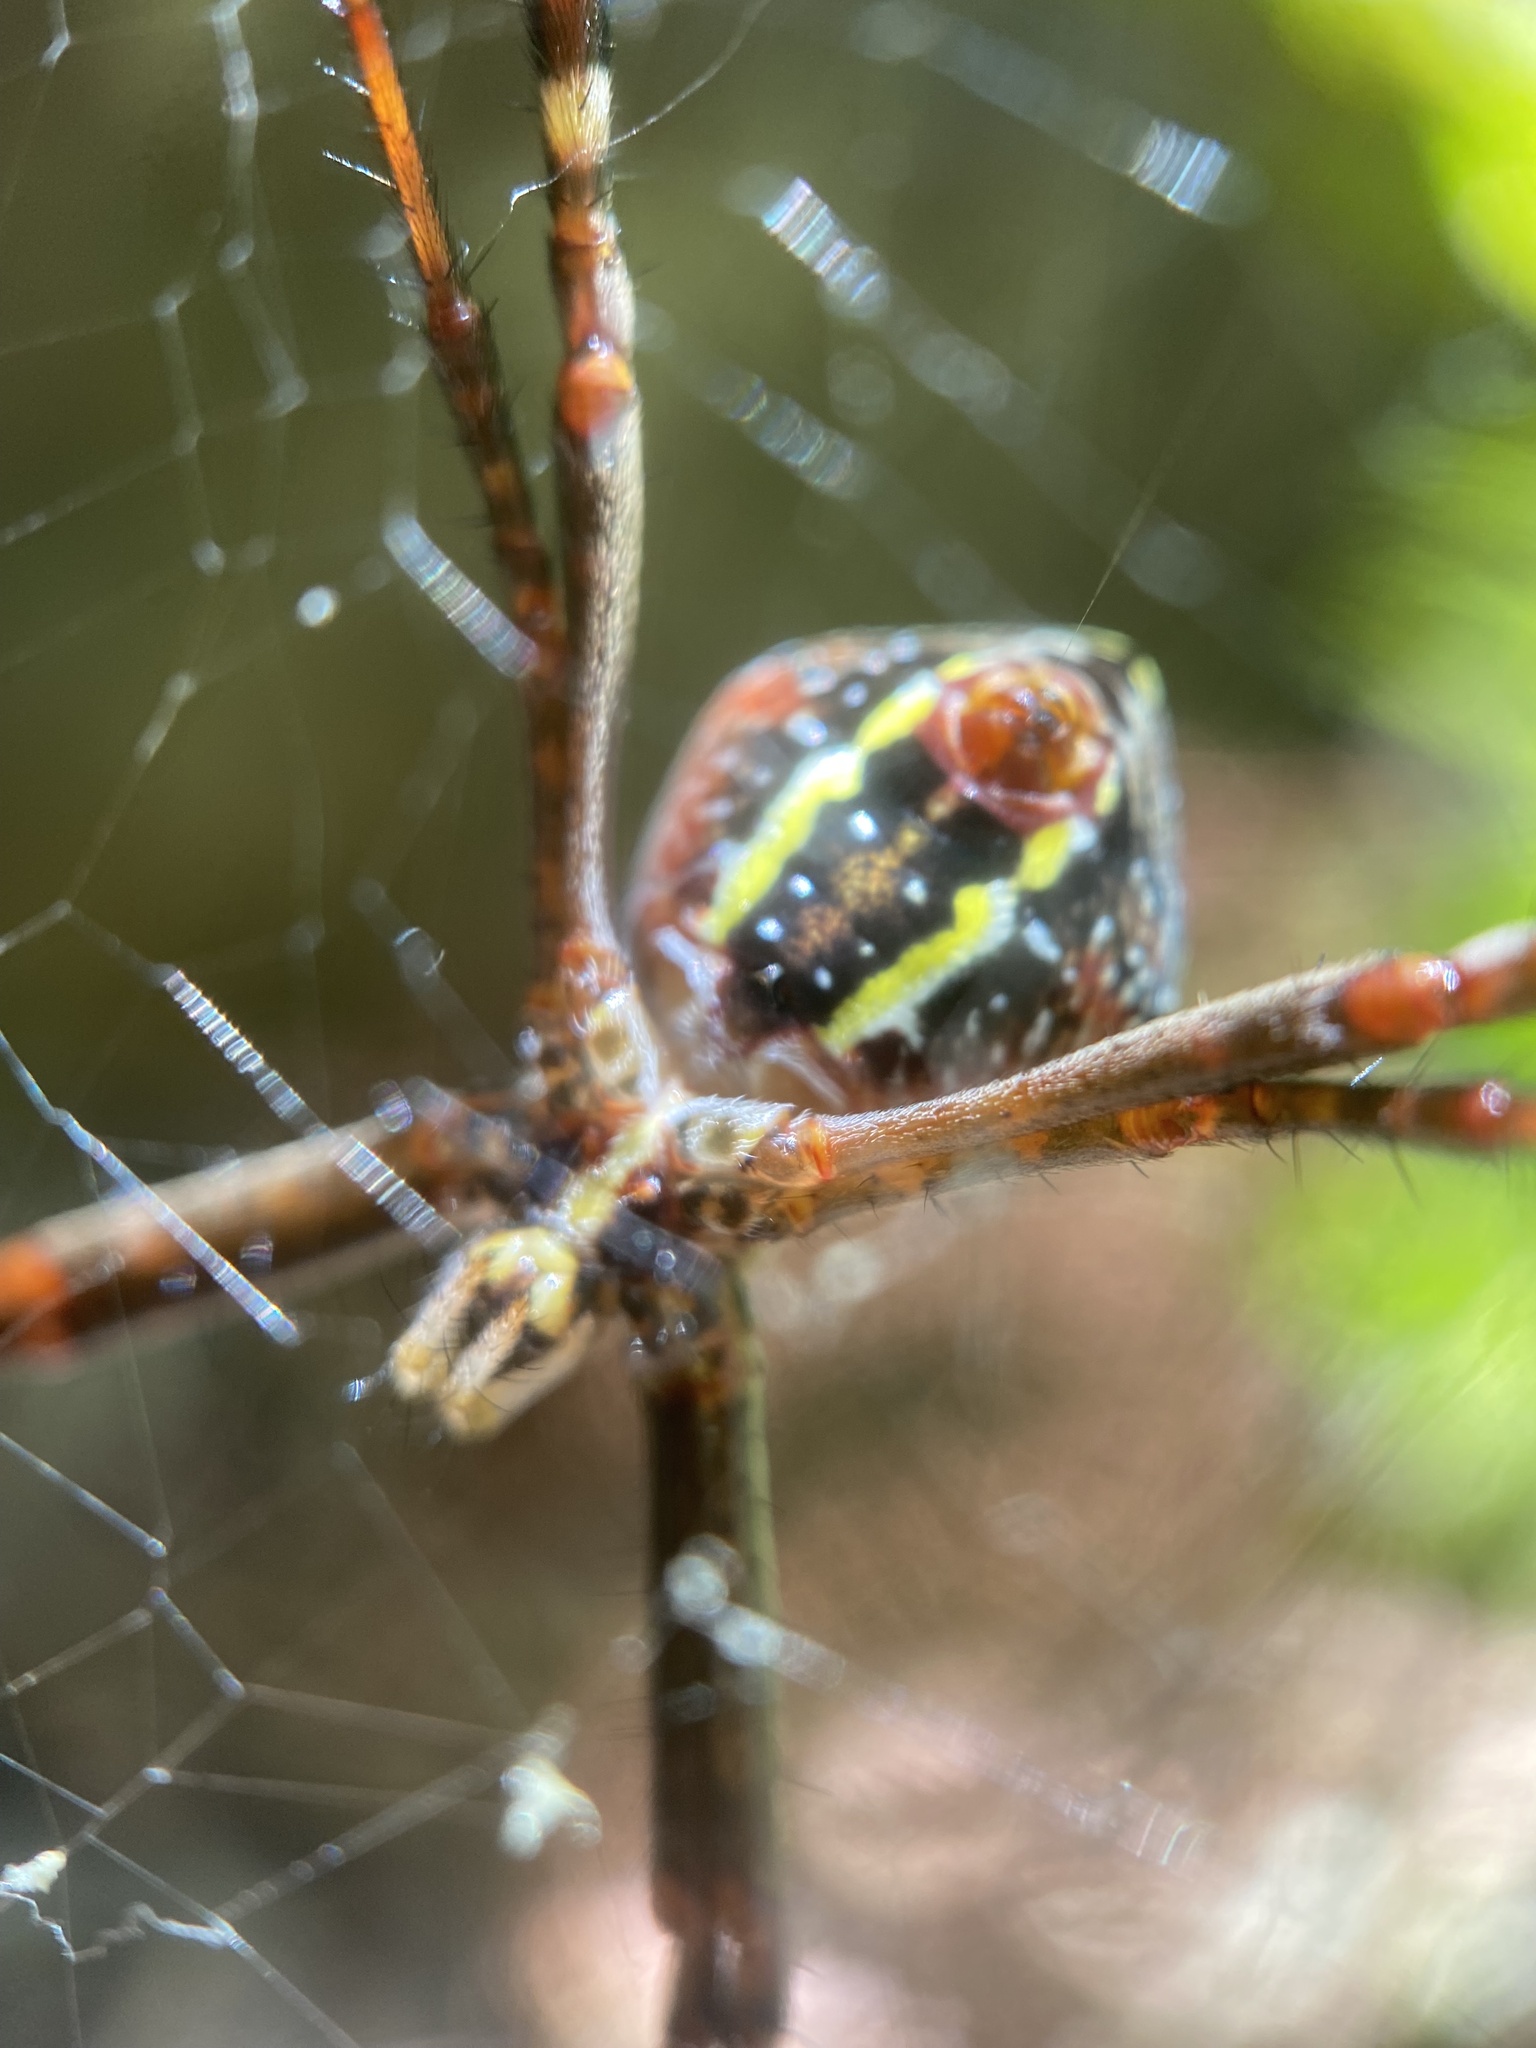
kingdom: Animalia
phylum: Arthropoda
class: Arachnida
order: Araneae
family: Araneidae
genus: Argiope
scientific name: Argiope keyserlingi
